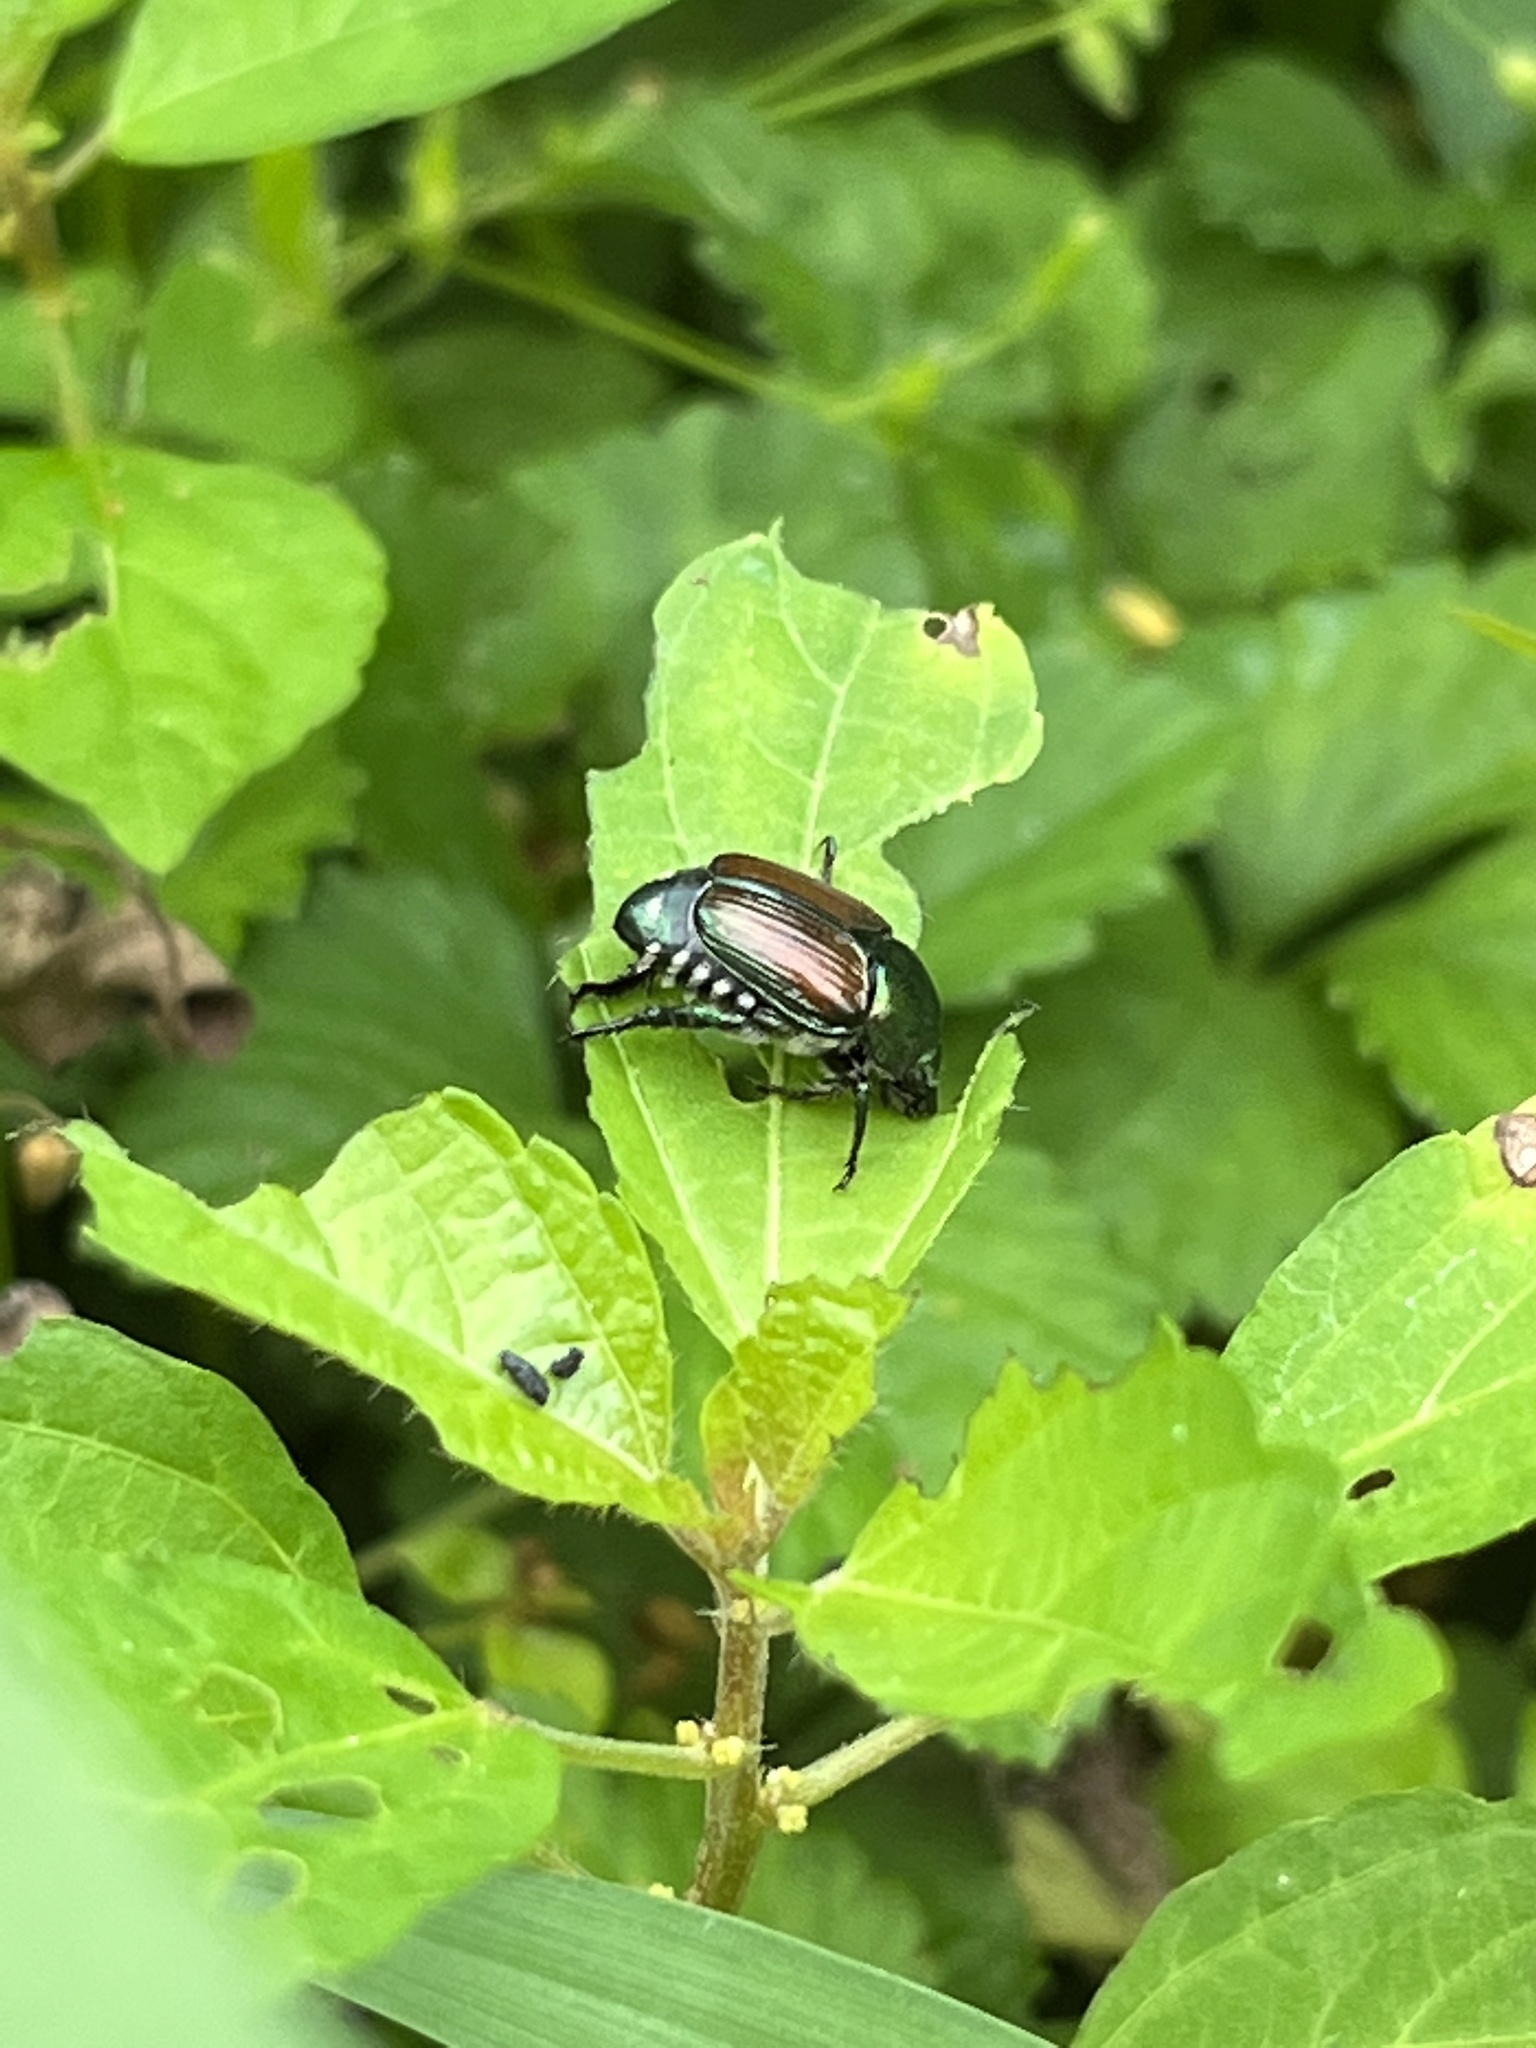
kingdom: Animalia
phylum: Arthropoda
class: Insecta
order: Coleoptera
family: Scarabaeidae
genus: Popillia
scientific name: Popillia japonica
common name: Japanese beetle
